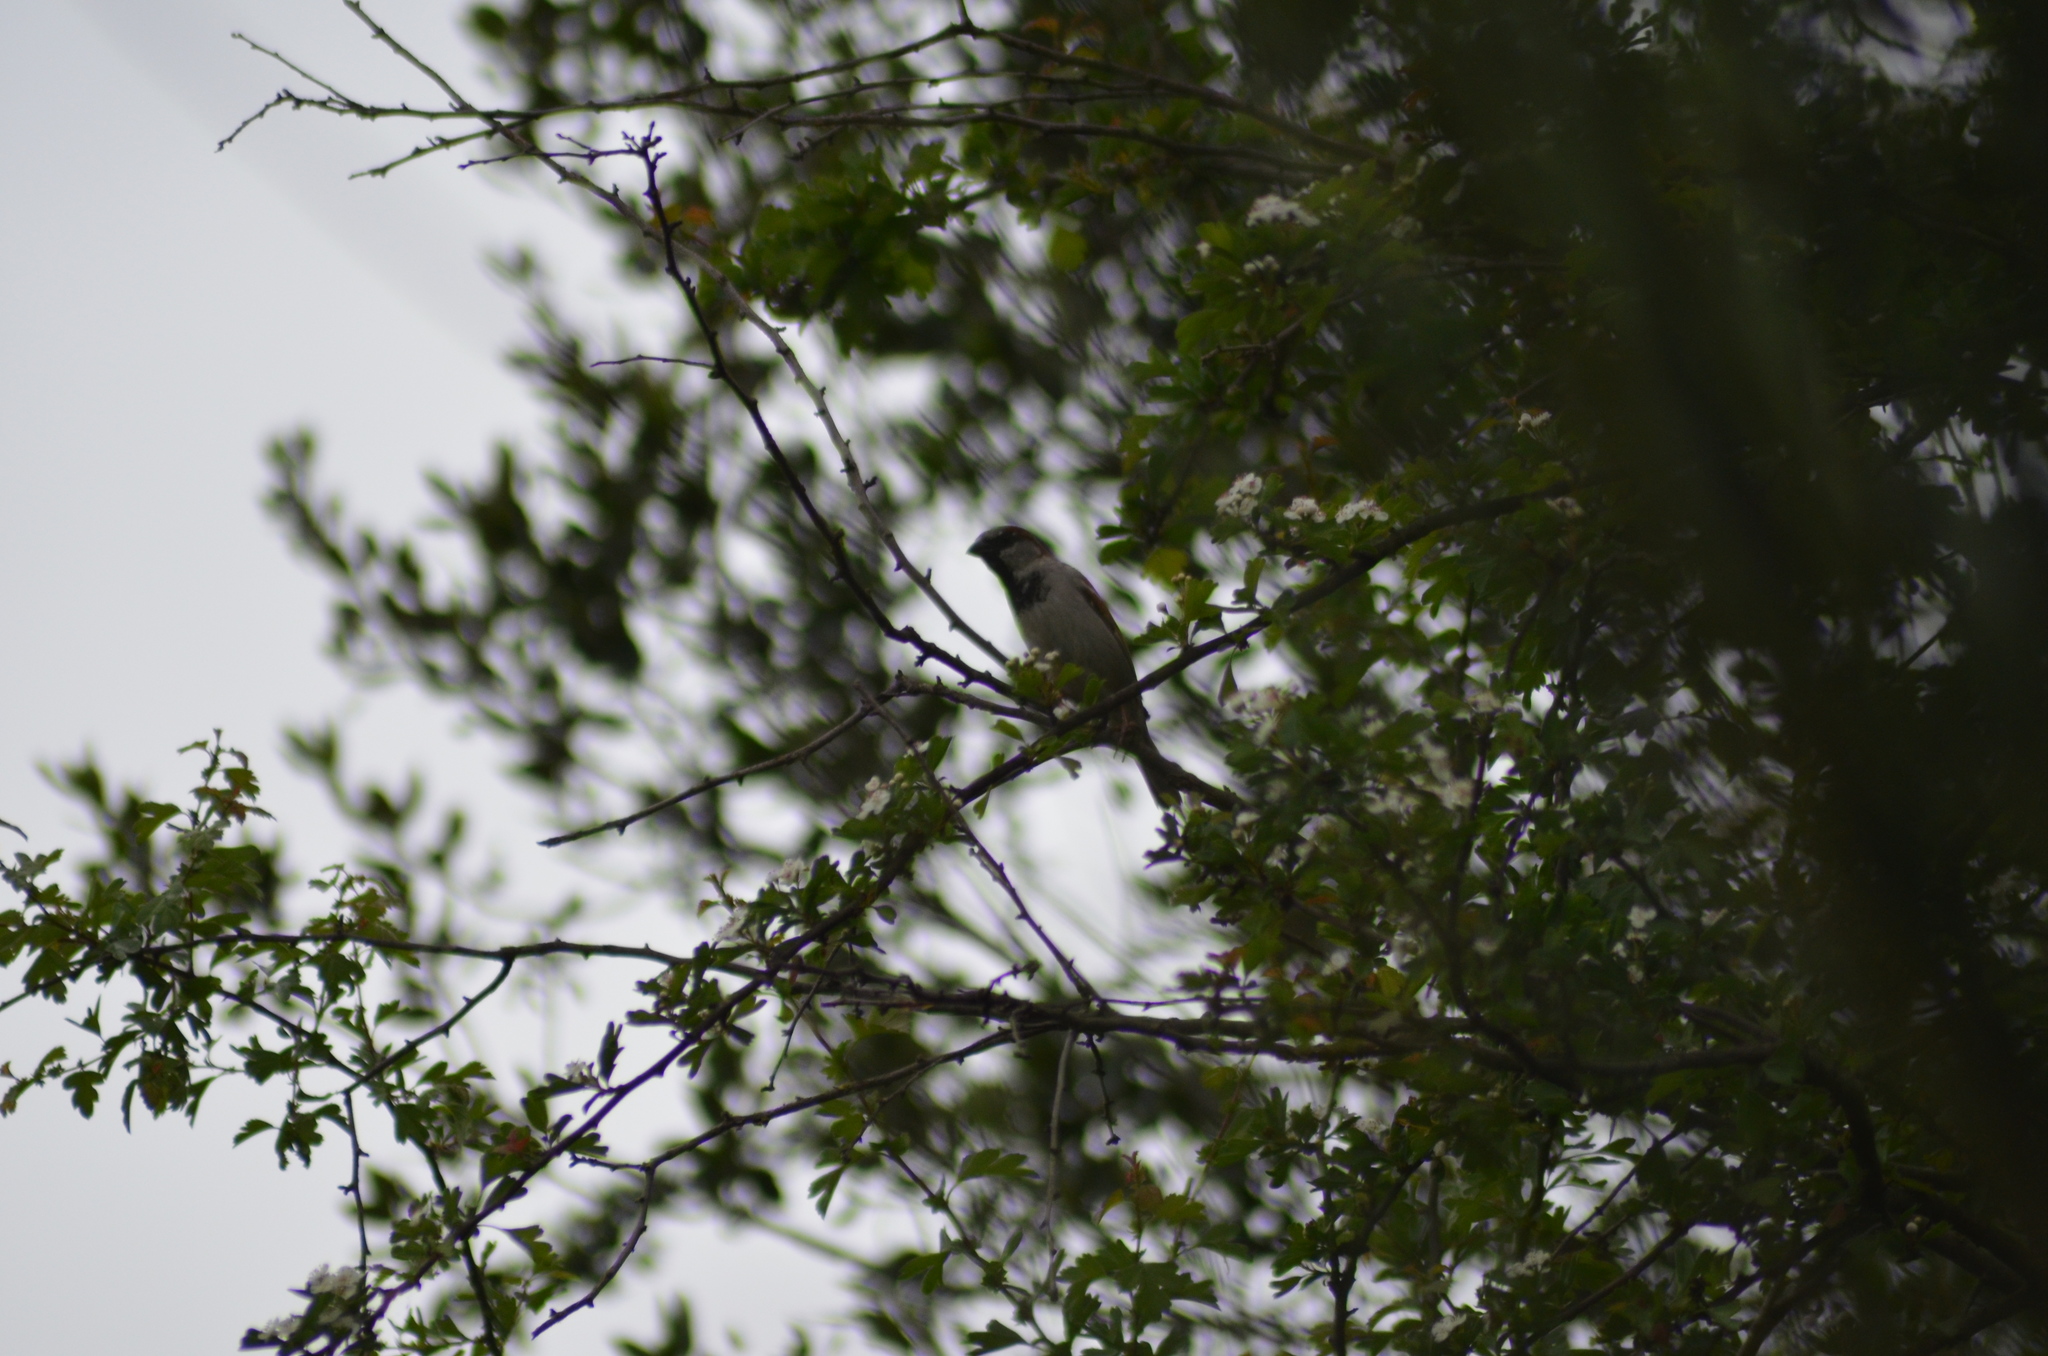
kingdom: Animalia
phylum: Chordata
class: Aves
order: Passeriformes
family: Passeridae
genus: Passer
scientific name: Passer domesticus
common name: House sparrow
